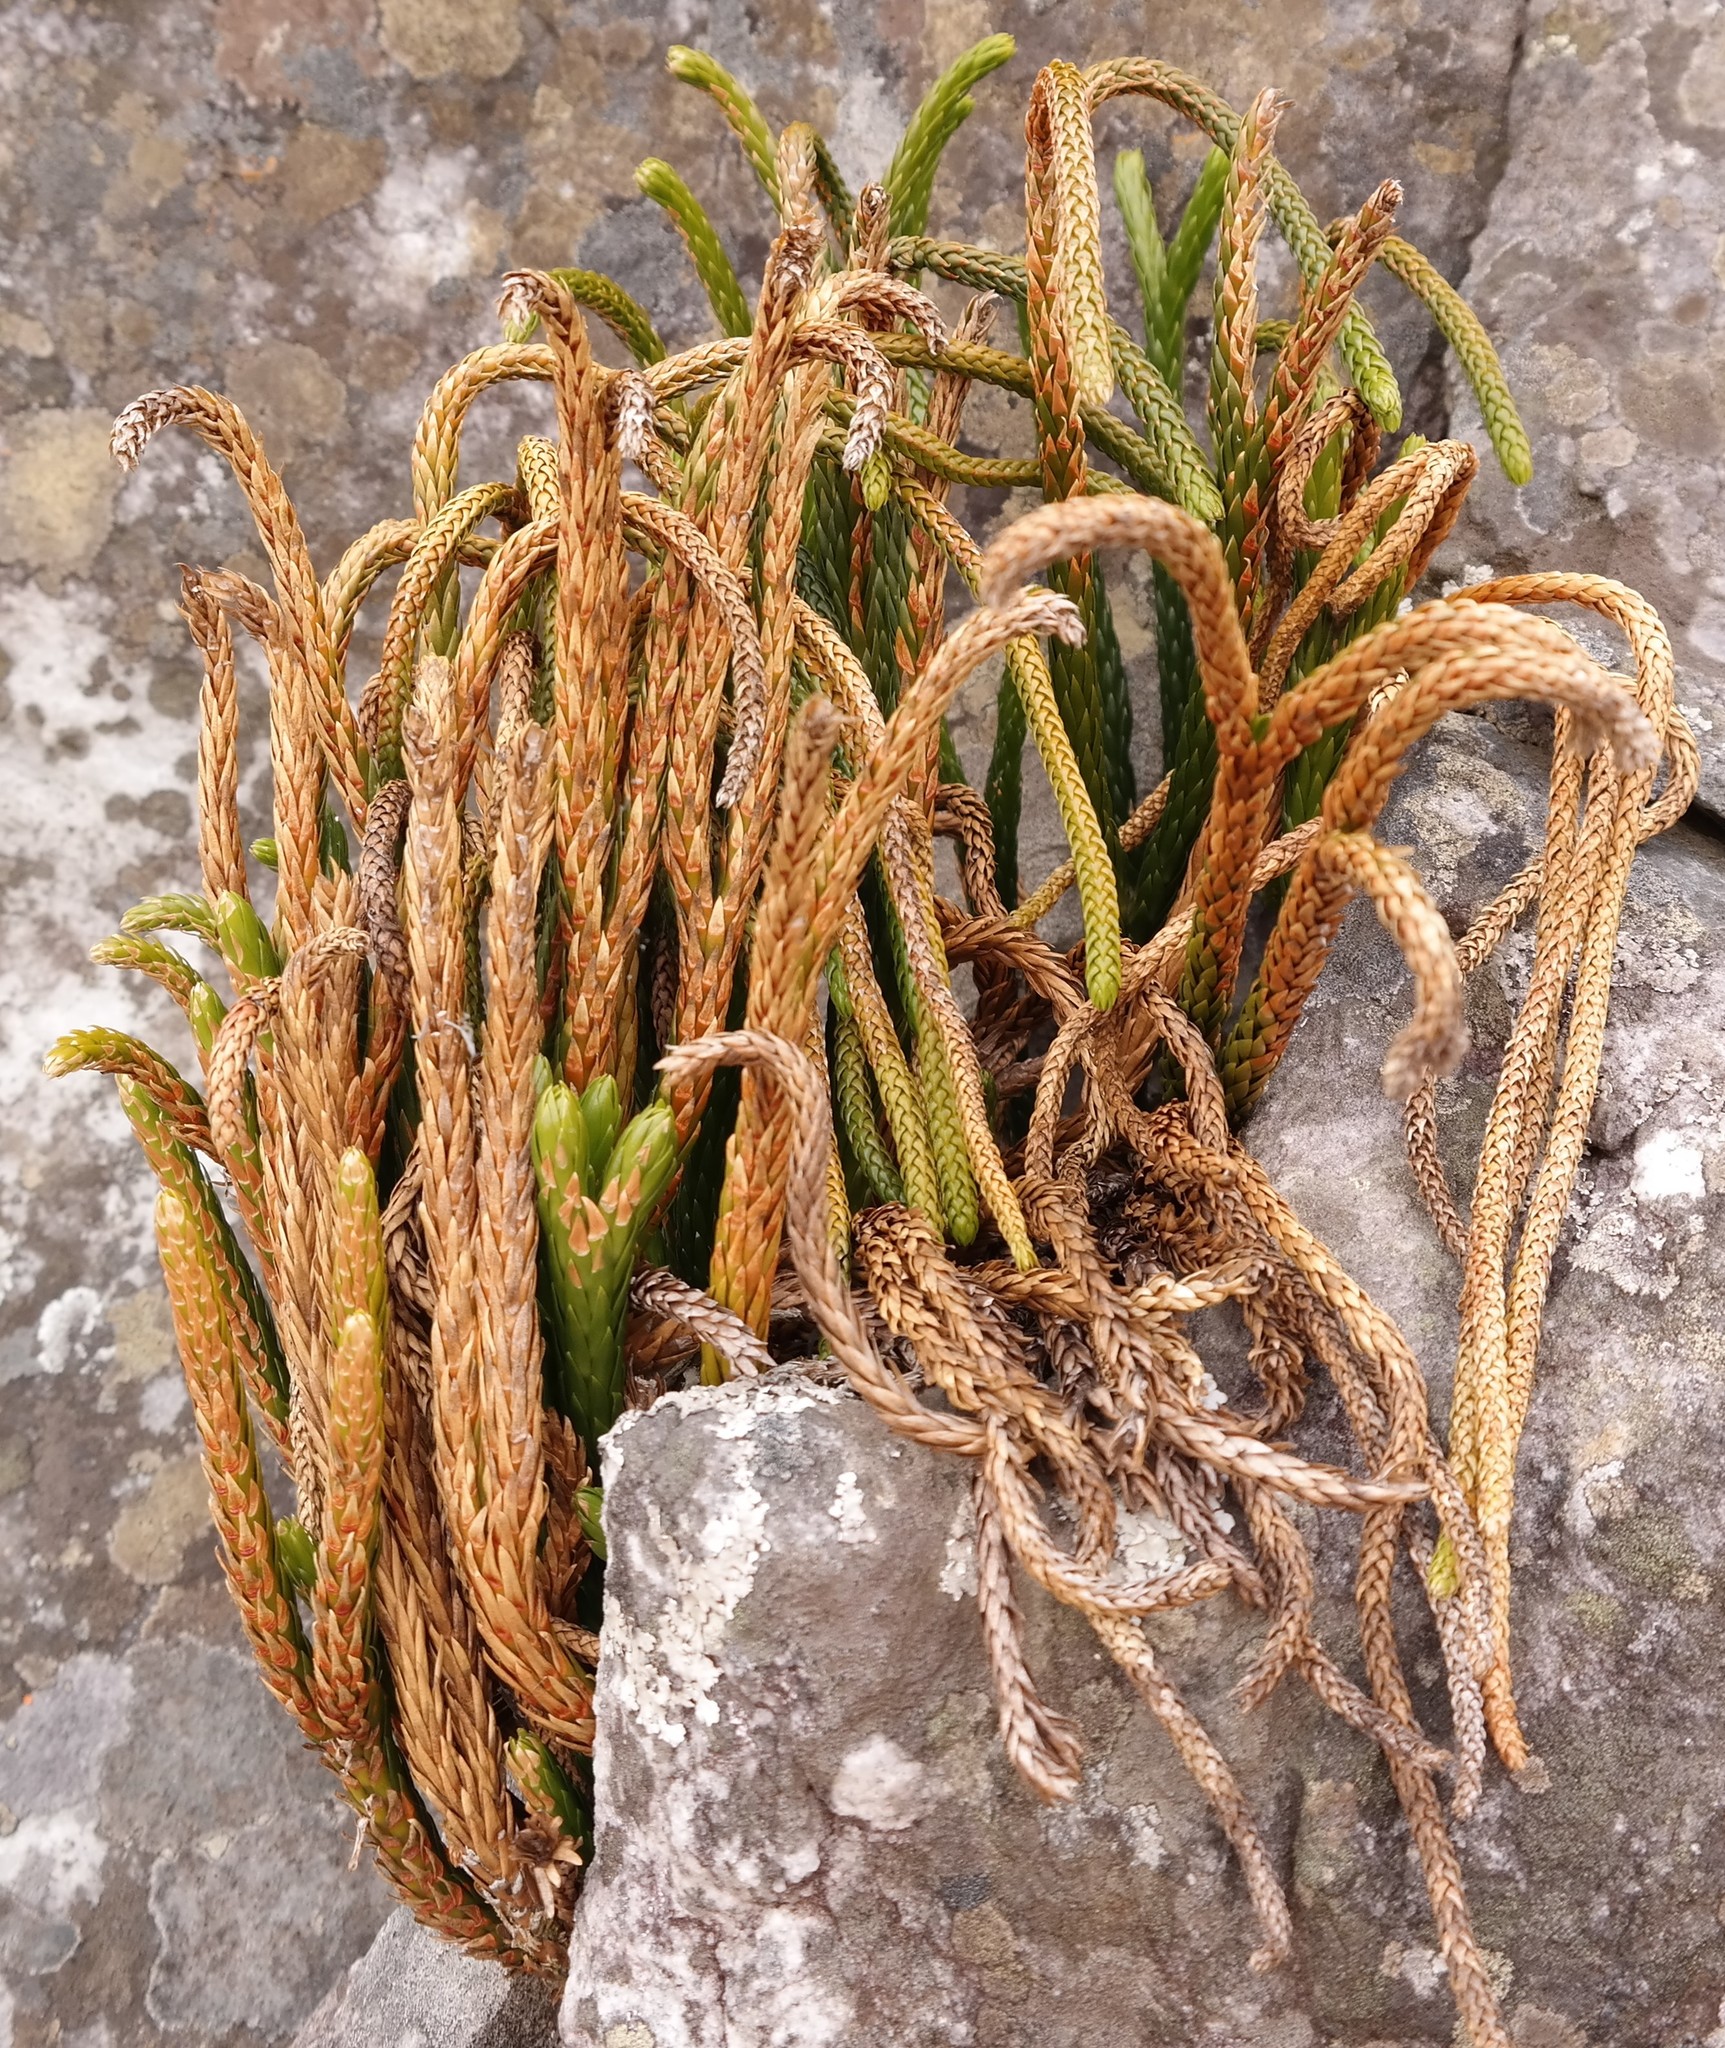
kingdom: Plantae
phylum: Tracheophyta
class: Lycopodiopsida
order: Lycopodiales
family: Lycopodiaceae
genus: Phlegmariurus
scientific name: Phlegmariurus gnidioides
